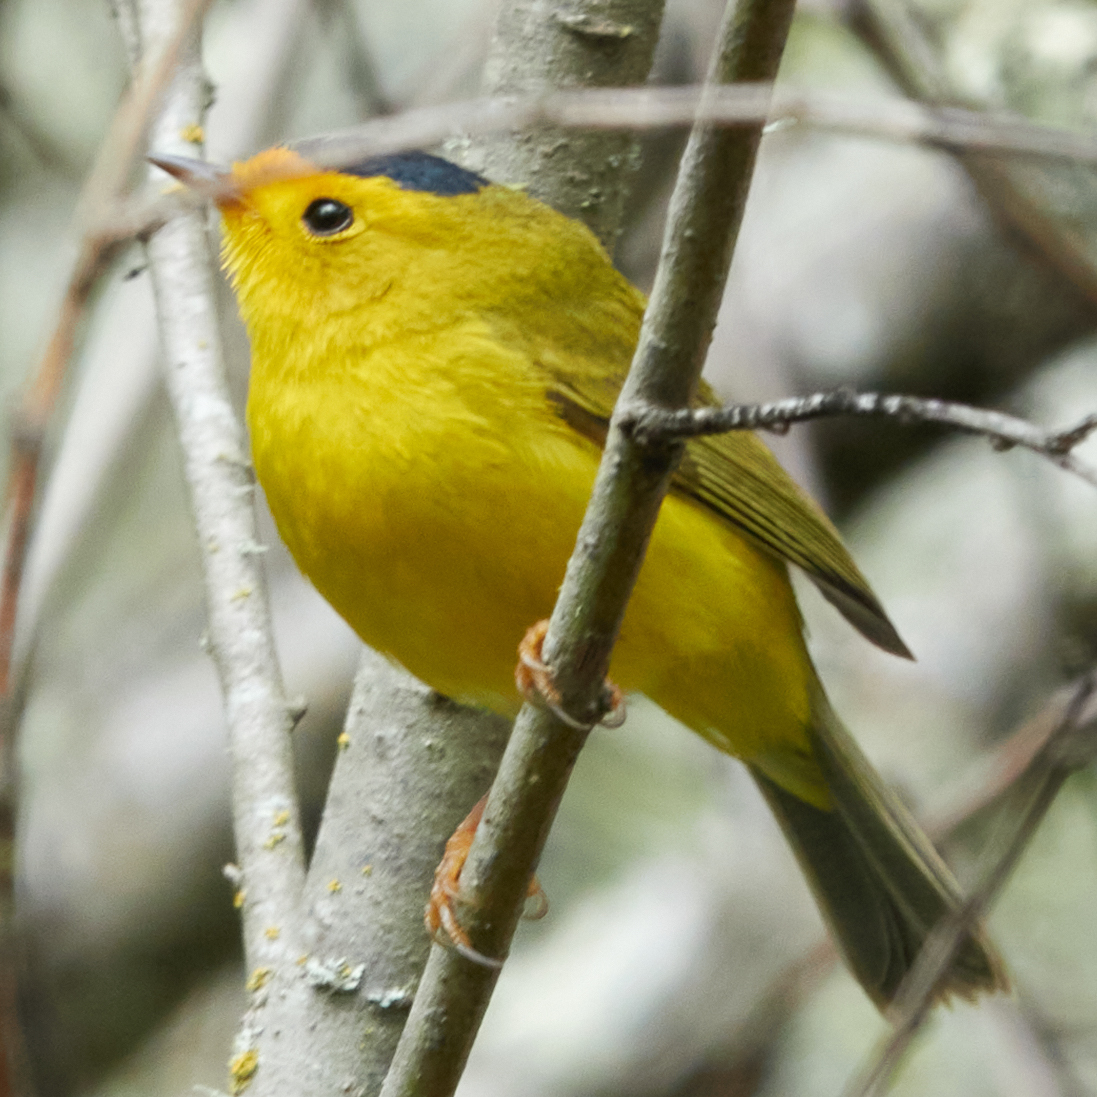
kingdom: Animalia
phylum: Chordata
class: Aves
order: Passeriformes
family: Parulidae
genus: Cardellina
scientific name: Cardellina pusilla
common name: Wilson's warbler
